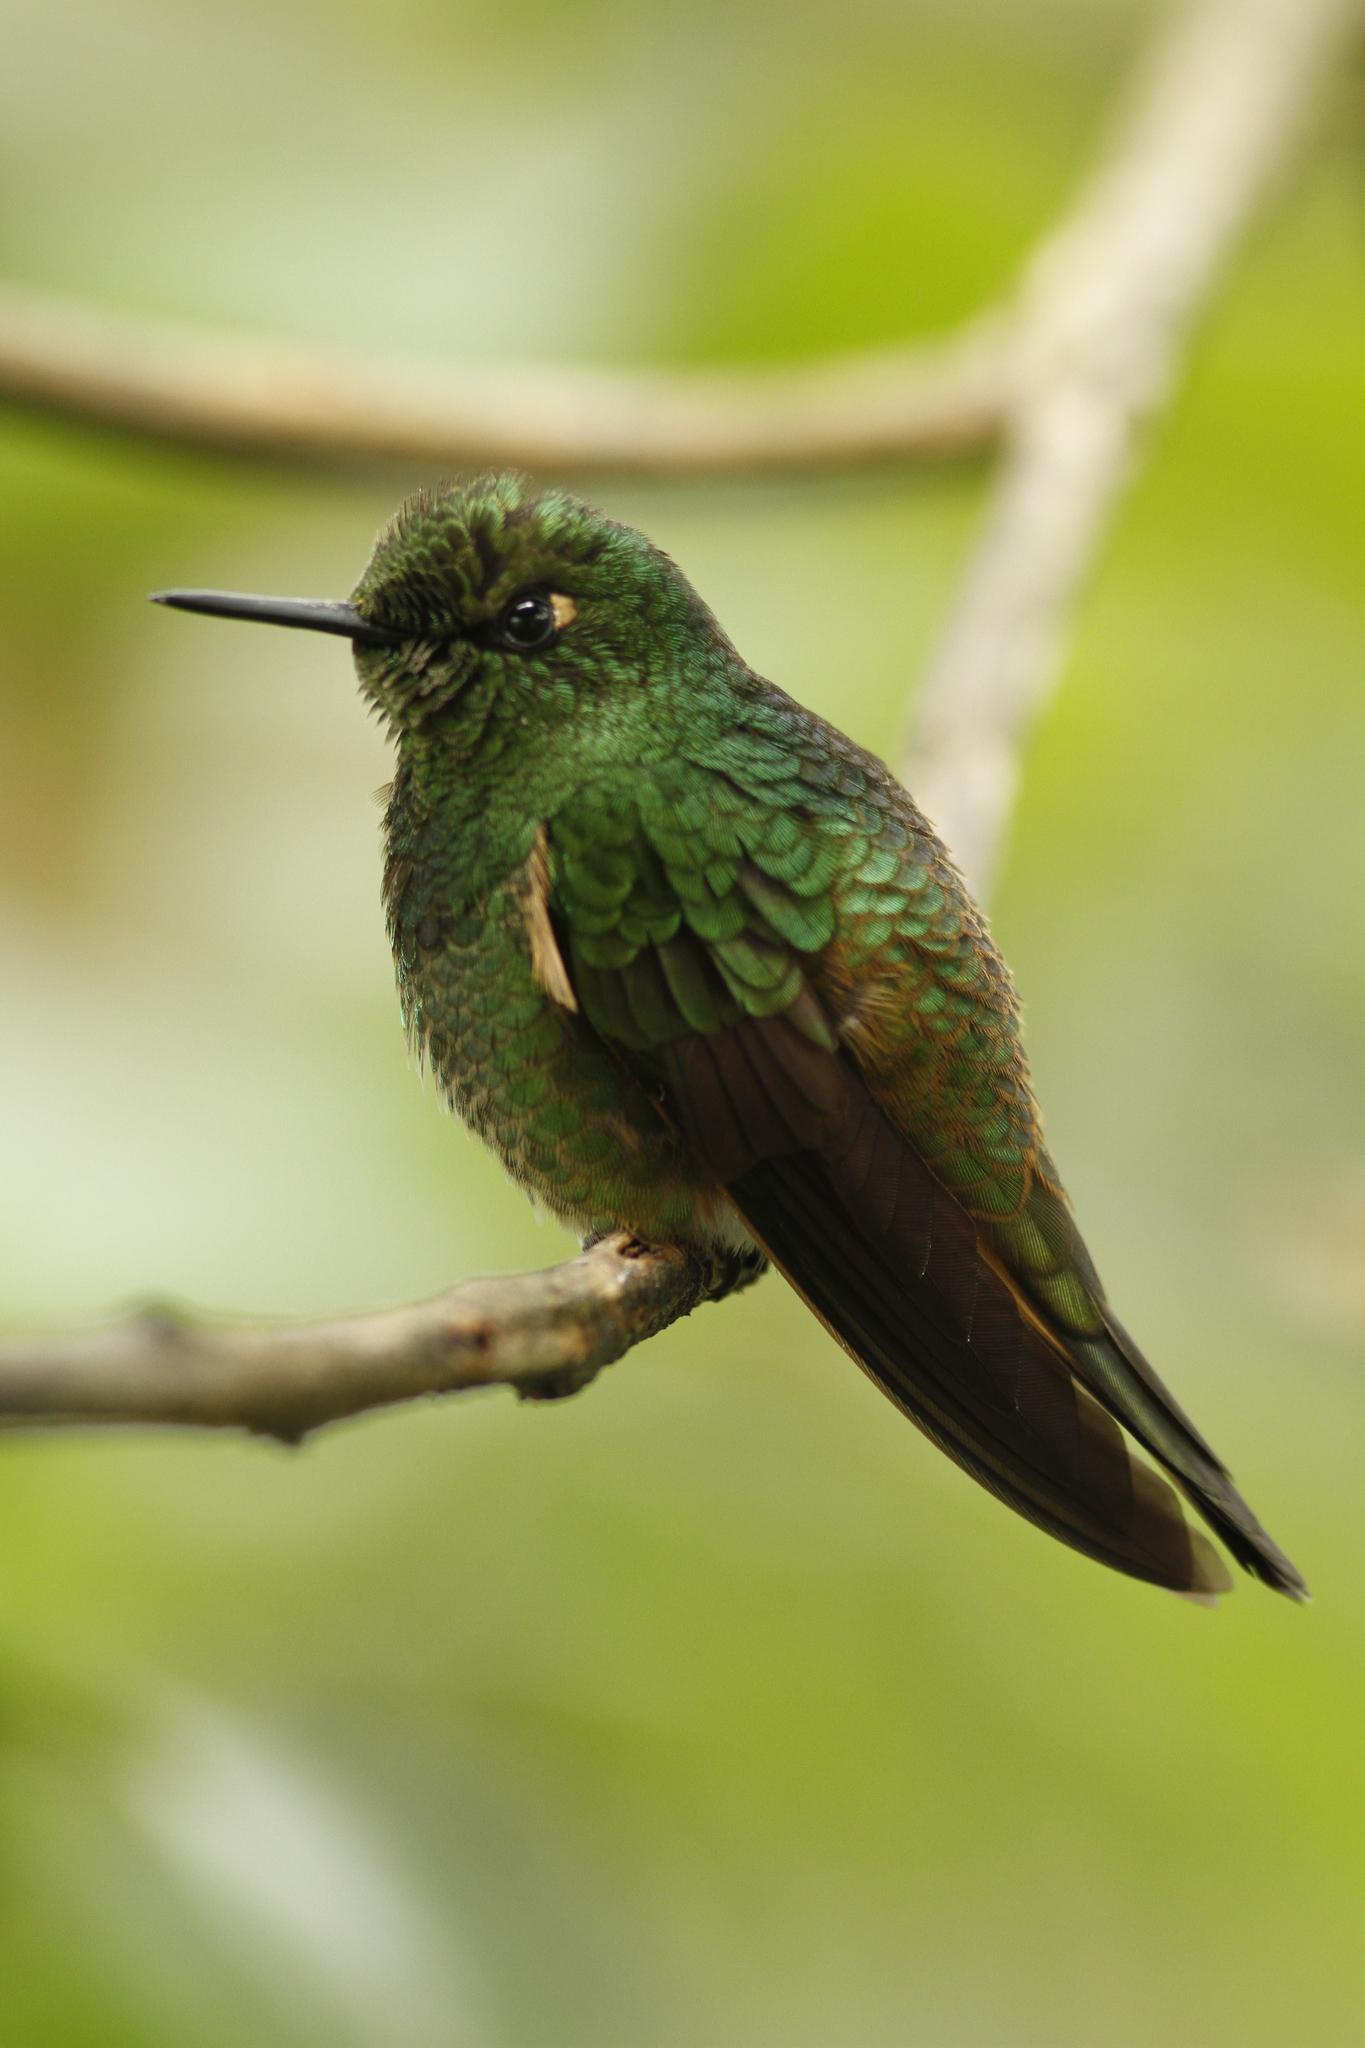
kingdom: Animalia
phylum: Chordata
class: Aves
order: Apodiformes
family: Trochilidae
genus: Boissonneaua
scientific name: Boissonneaua flavescens
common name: Buff-tailed coronet
